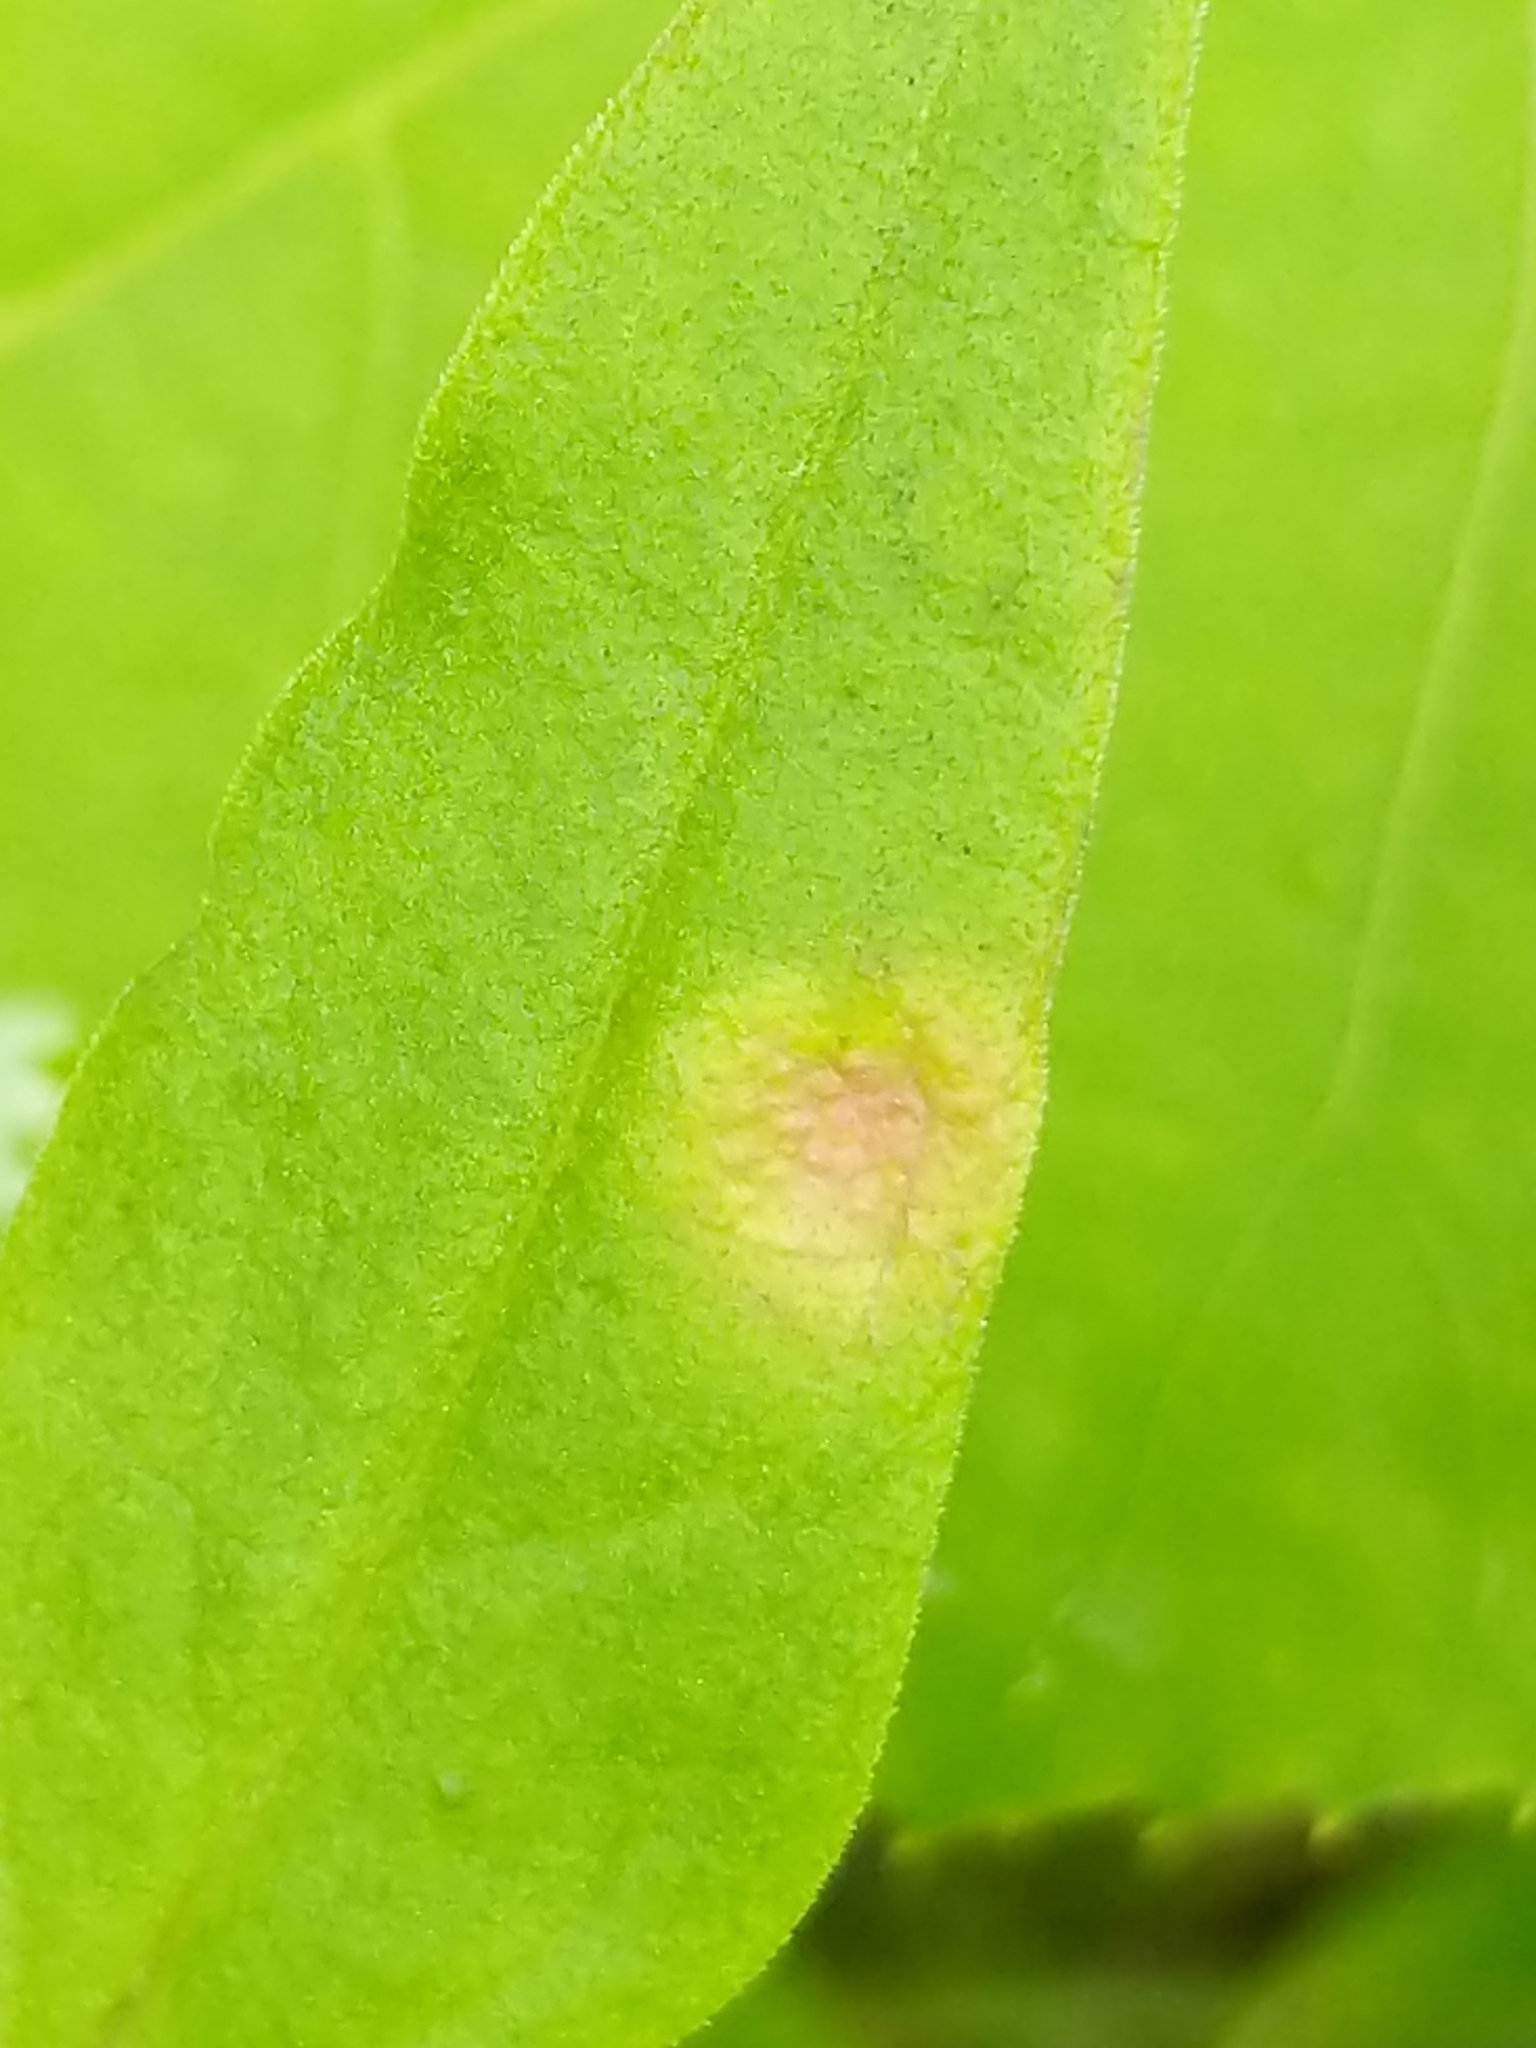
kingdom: Fungi
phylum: Basidiomycota
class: Pucciniomycetes
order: Pucciniales
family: Pucciniaceae
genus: Puccinia
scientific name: Puccinia andropogonis
